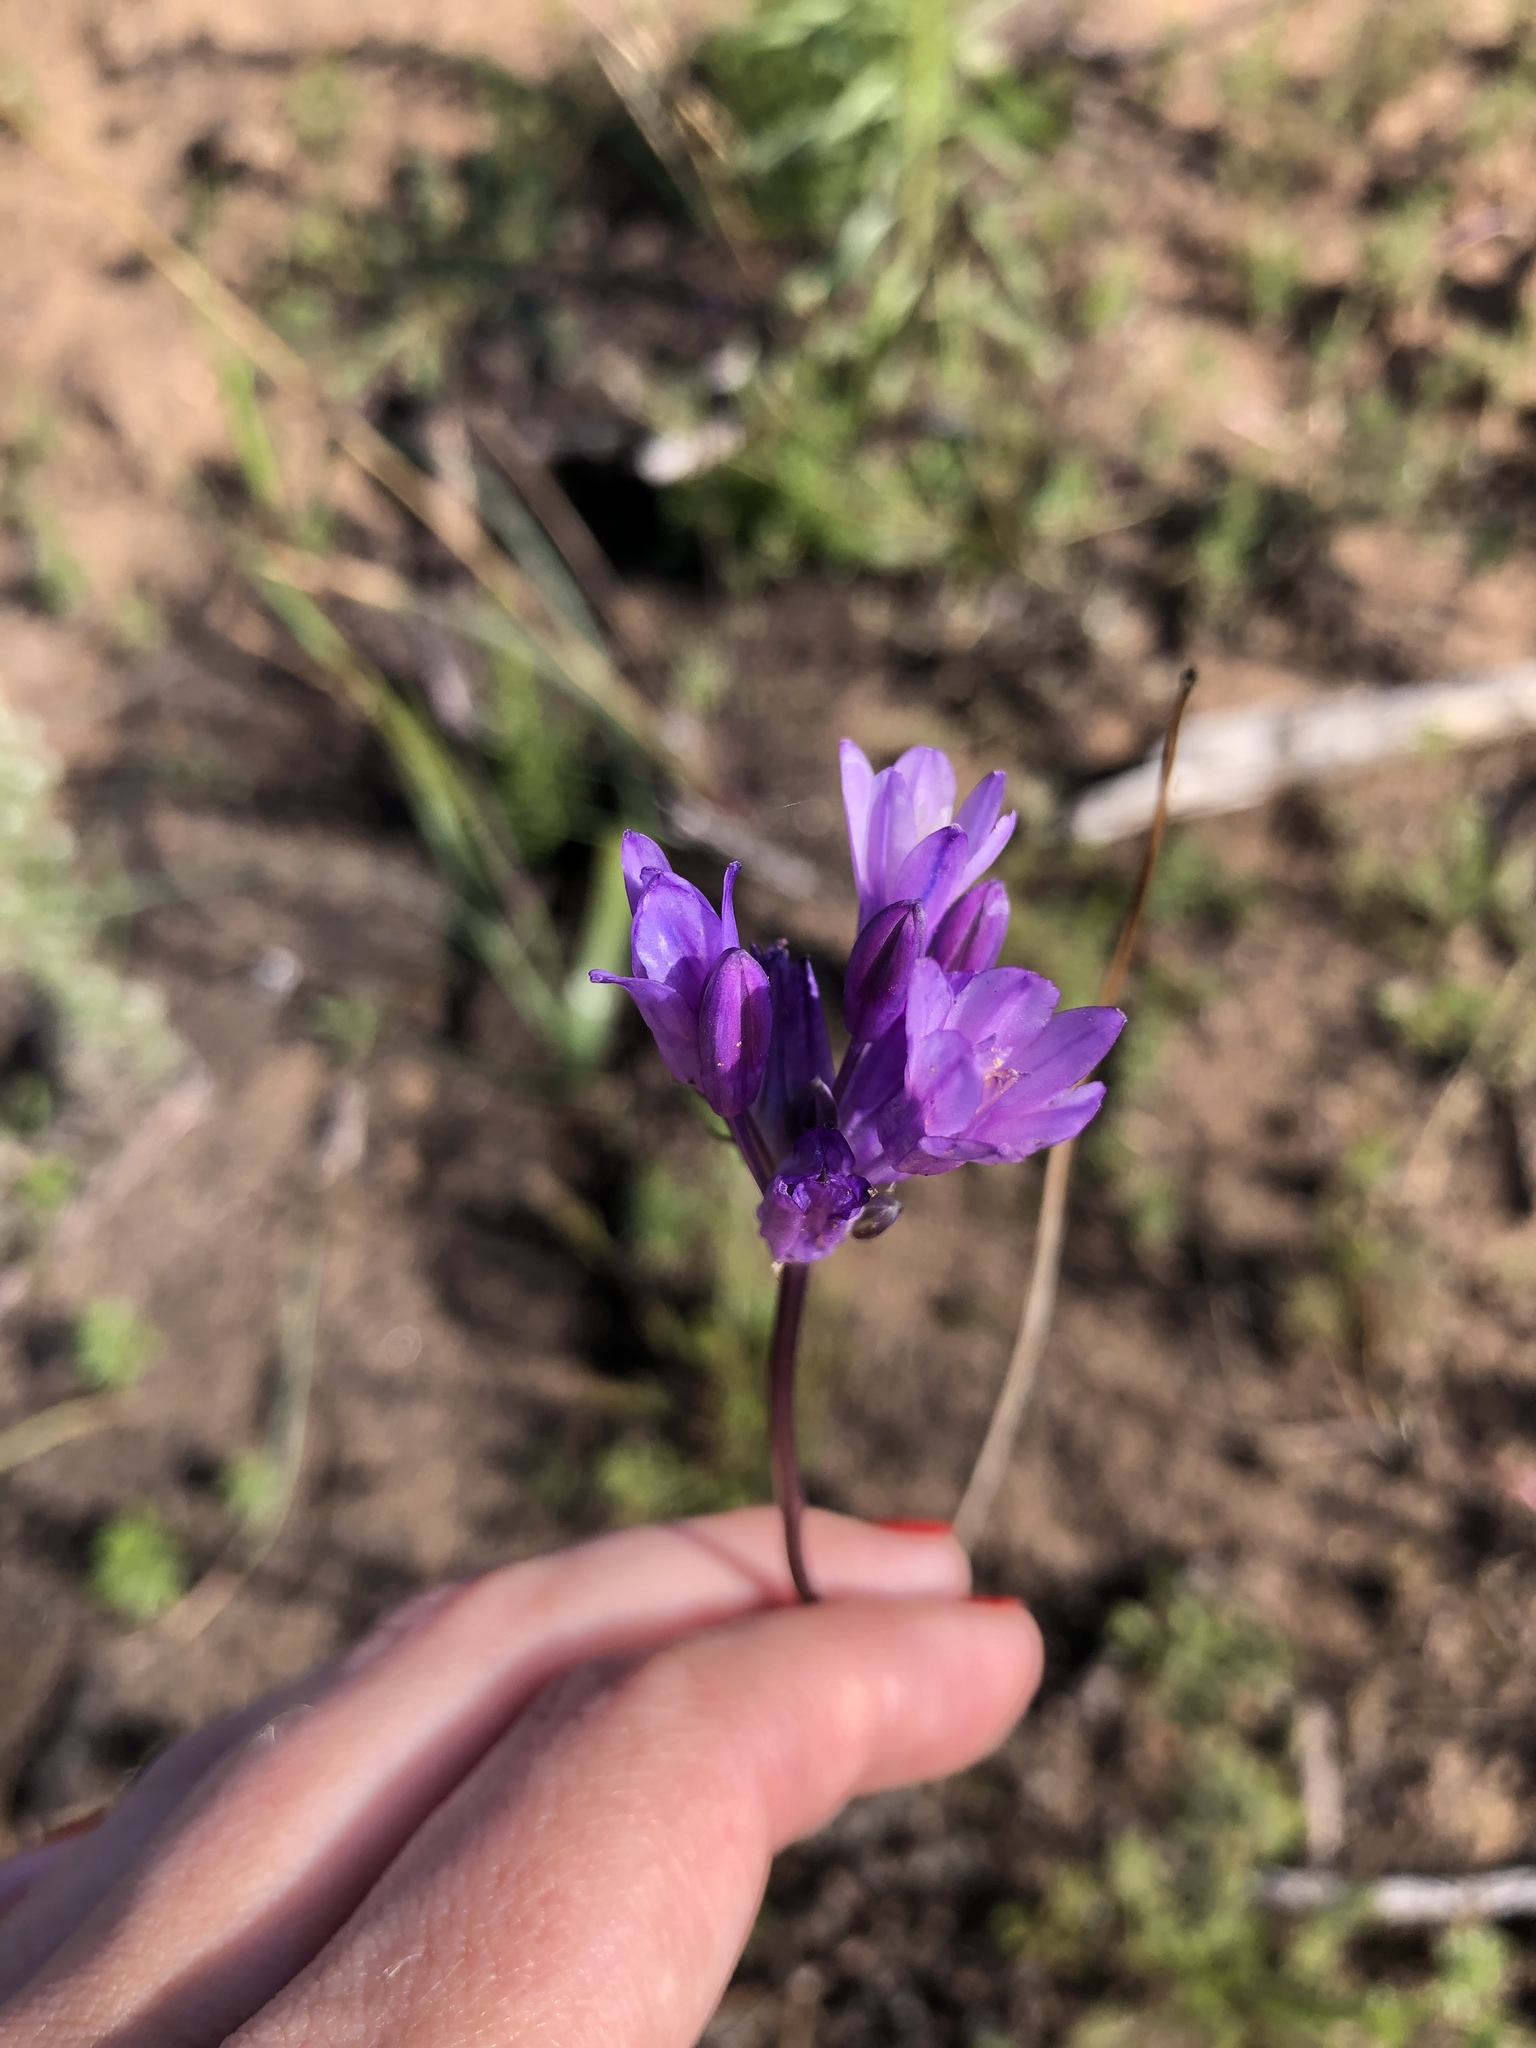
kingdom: Plantae
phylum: Tracheophyta
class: Liliopsida
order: Asparagales
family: Asparagaceae
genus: Dipterostemon
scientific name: Dipterostemon capitatus
